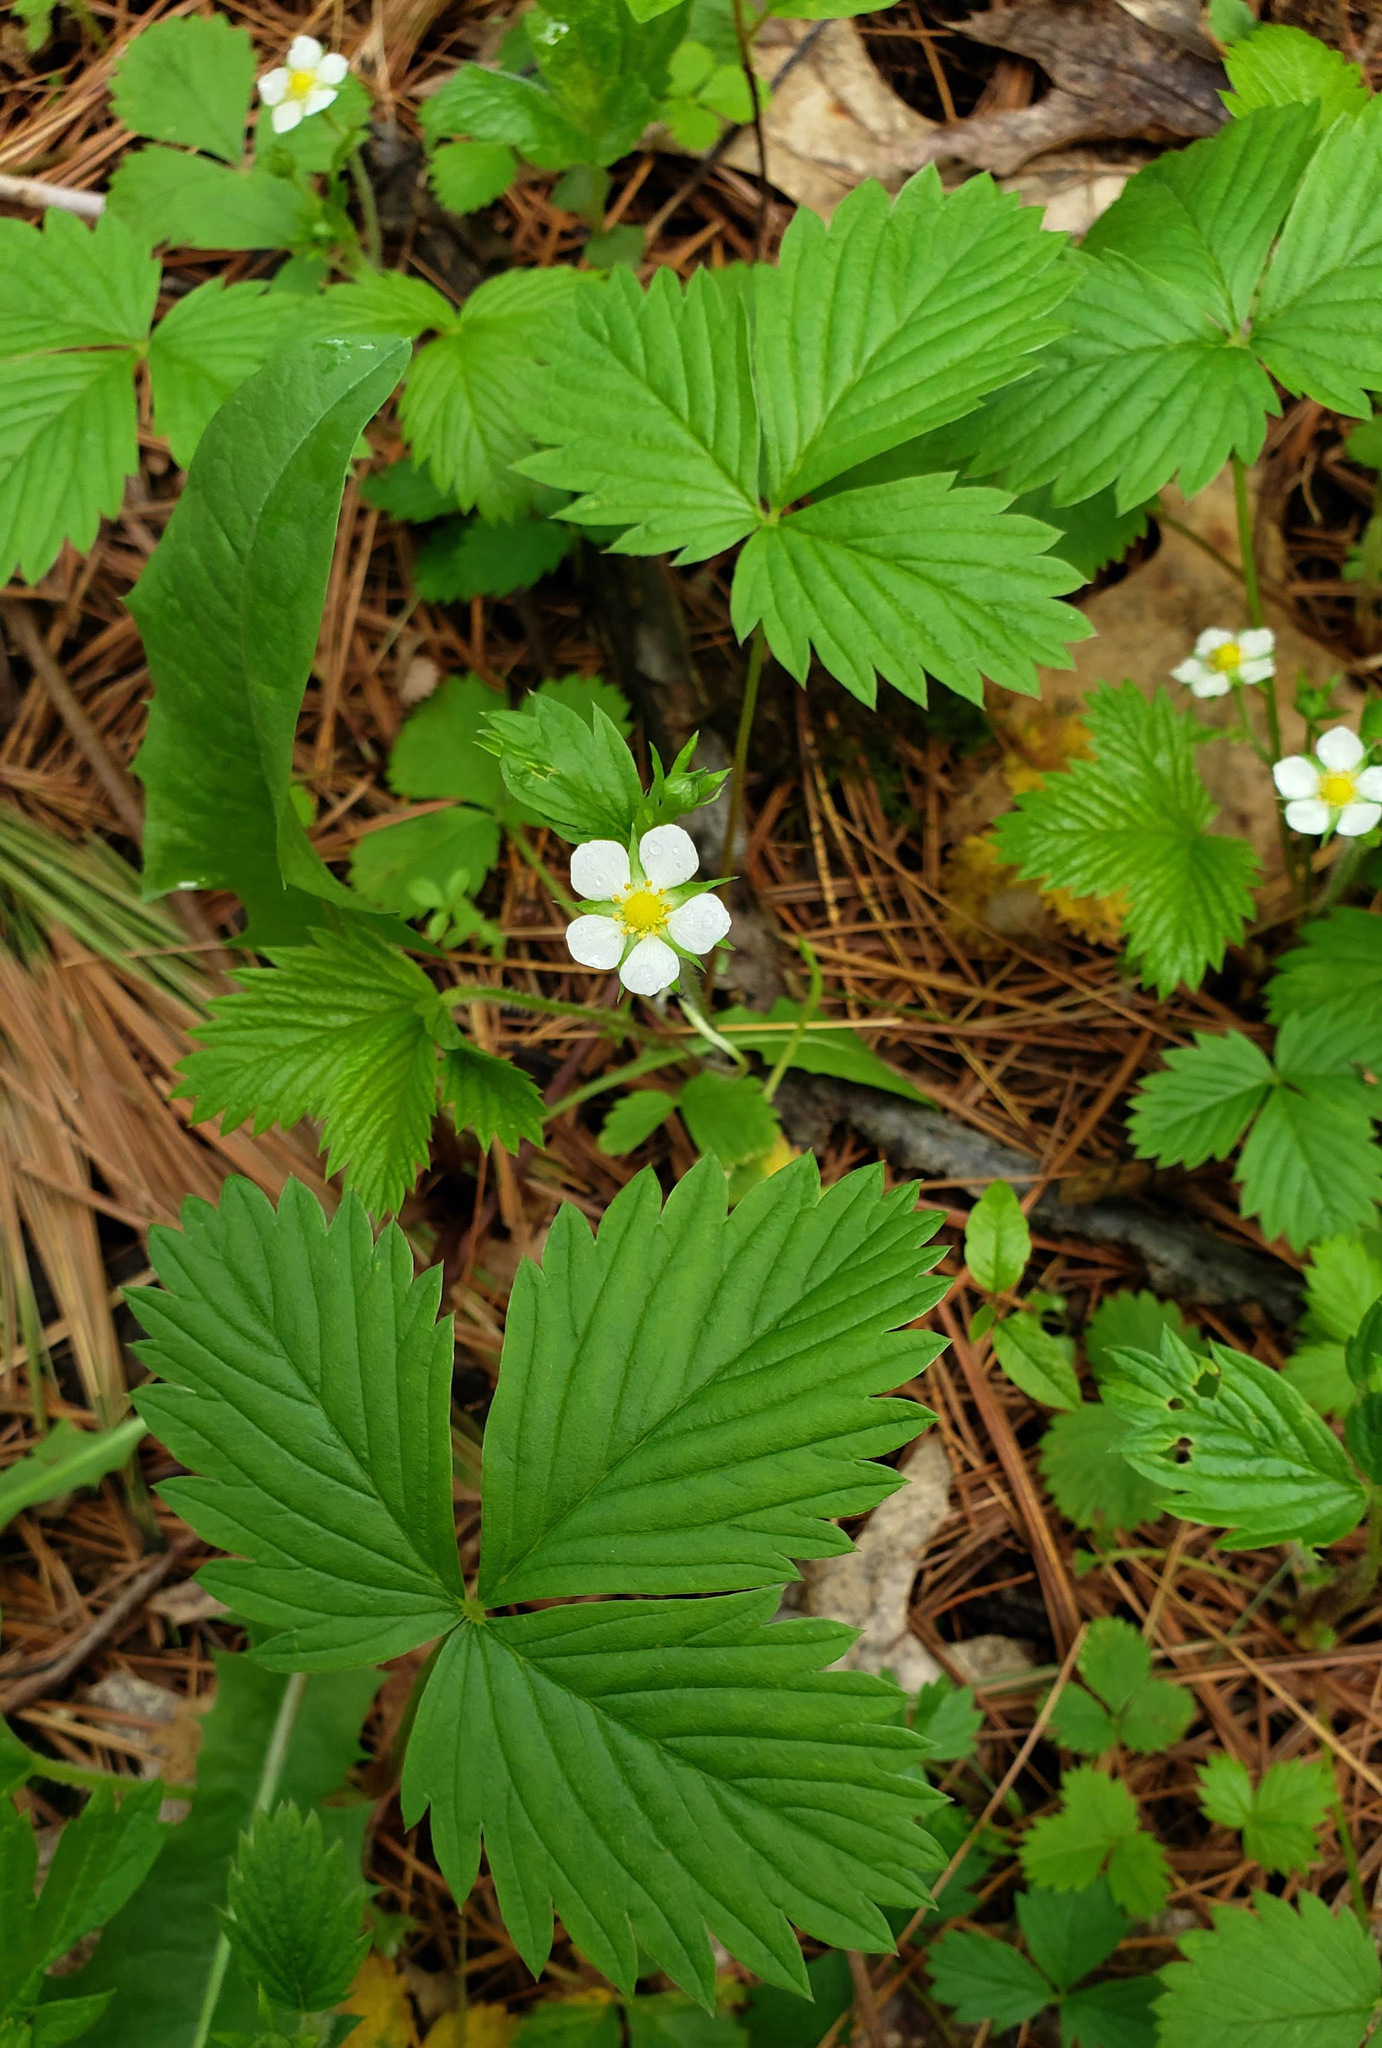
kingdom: Plantae
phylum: Tracheophyta
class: Magnoliopsida
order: Rosales
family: Rosaceae
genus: Fragaria
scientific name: Fragaria vesca
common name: Wild strawberry
